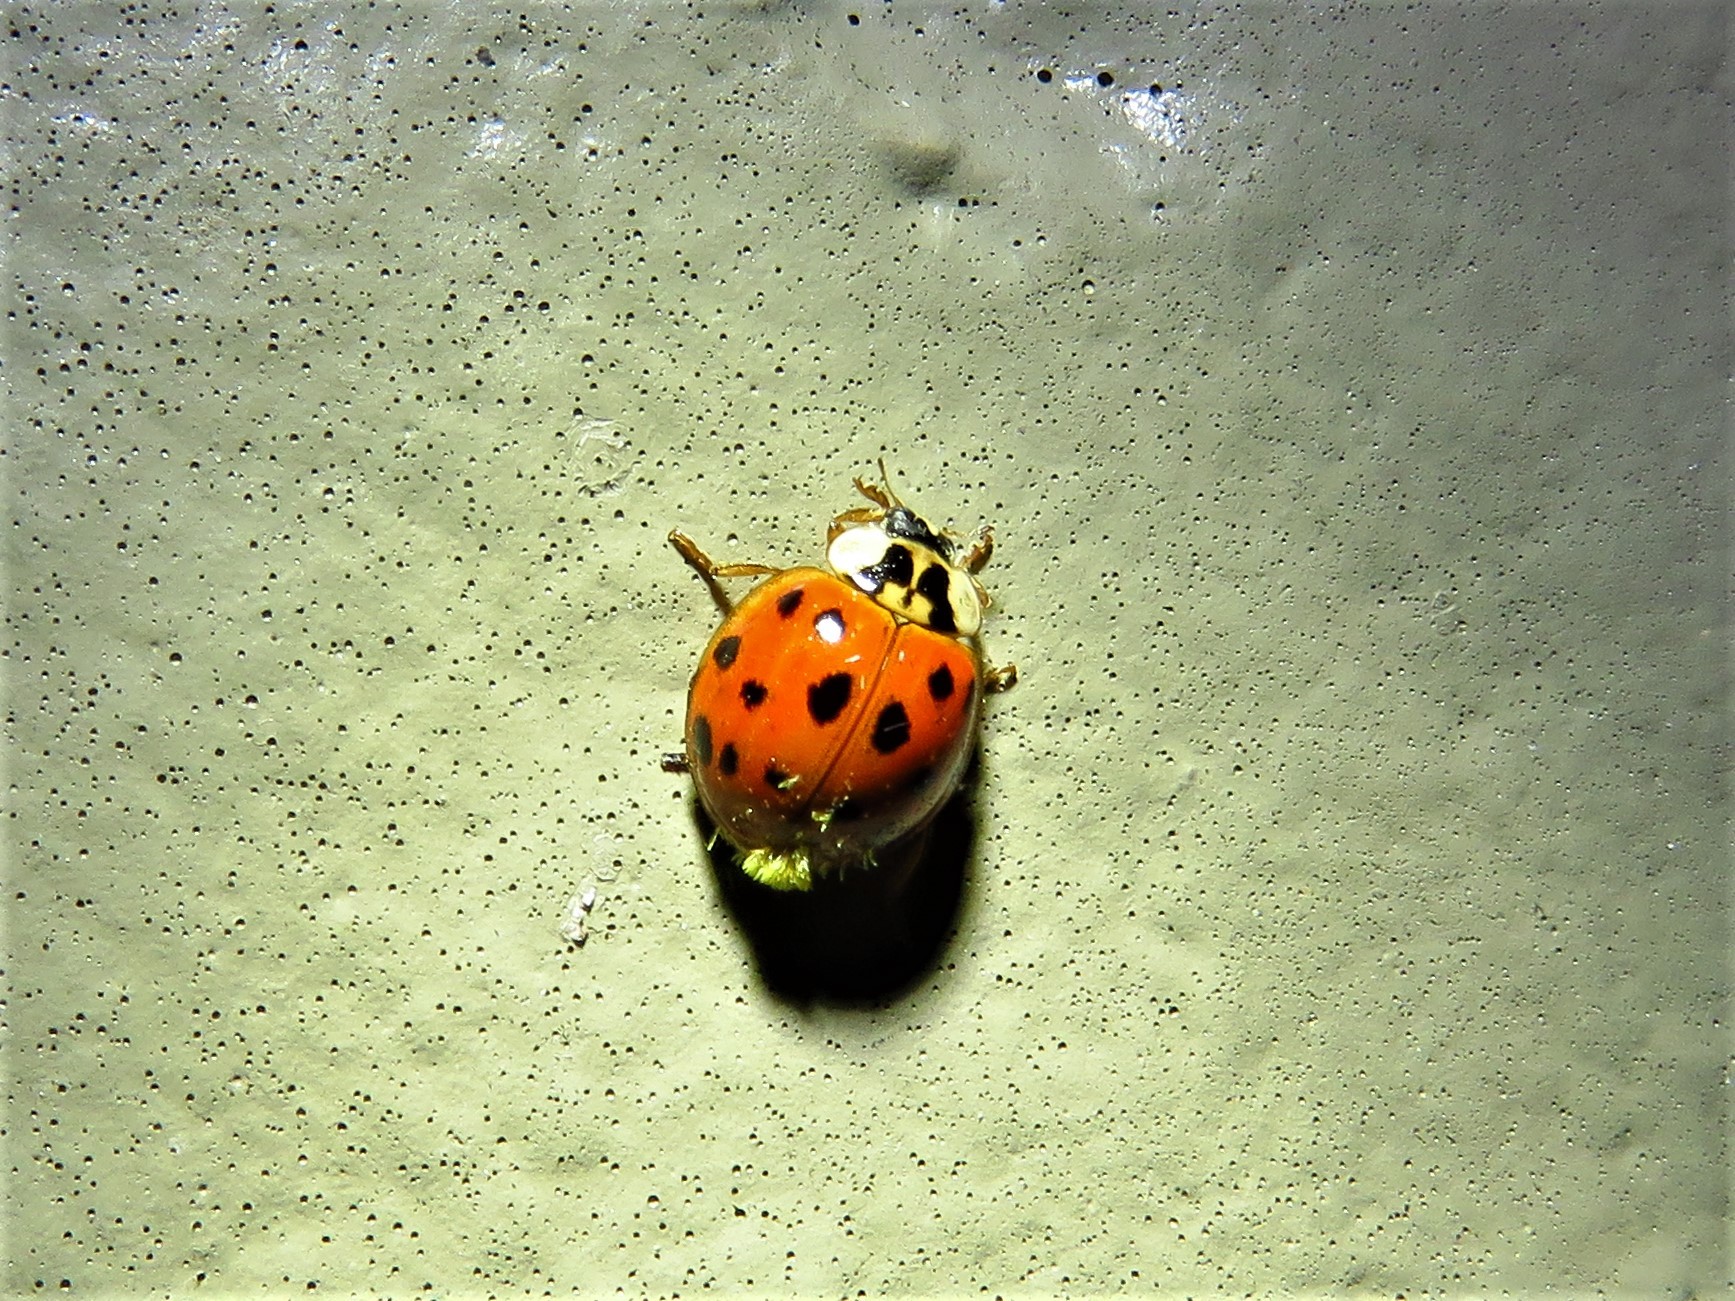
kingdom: Animalia
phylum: Arthropoda
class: Insecta
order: Coleoptera
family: Coccinellidae
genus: Harmonia
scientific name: Harmonia axyridis
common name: Harlequin ladybird
